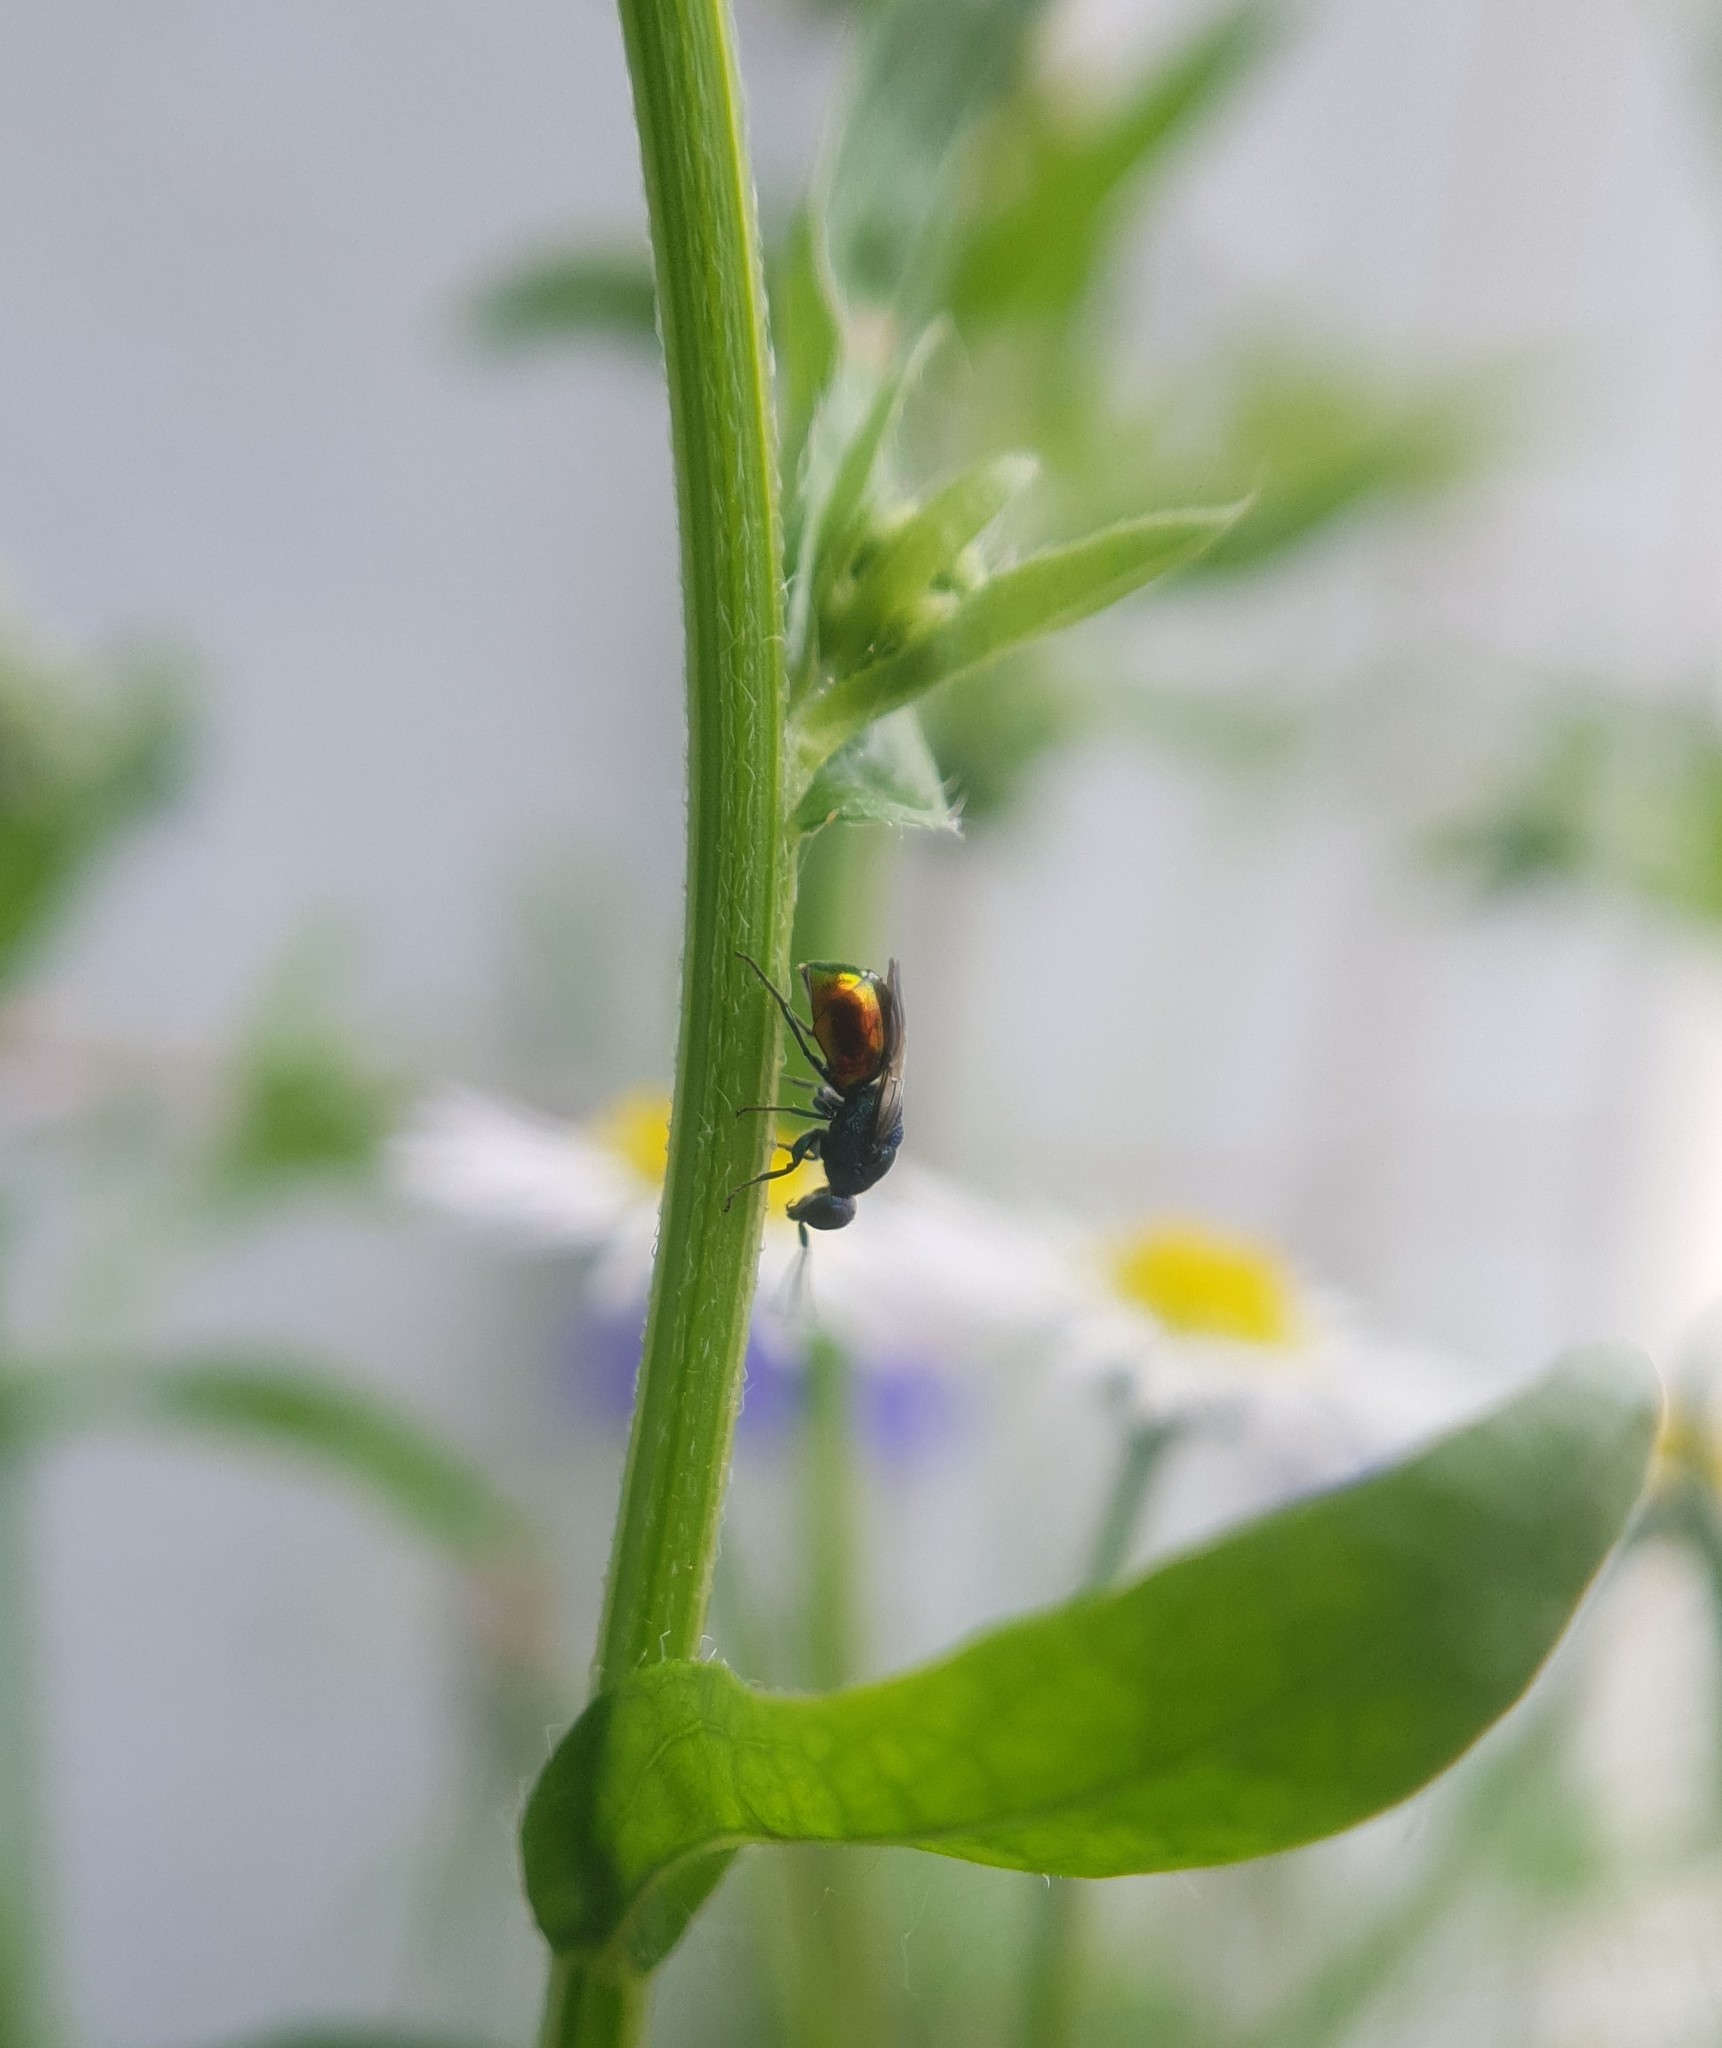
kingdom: Animalia
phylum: Arthropoda
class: Insecta
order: Hymenoptera
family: Chrysididae
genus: Omalus
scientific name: Omalus biaccinctus
